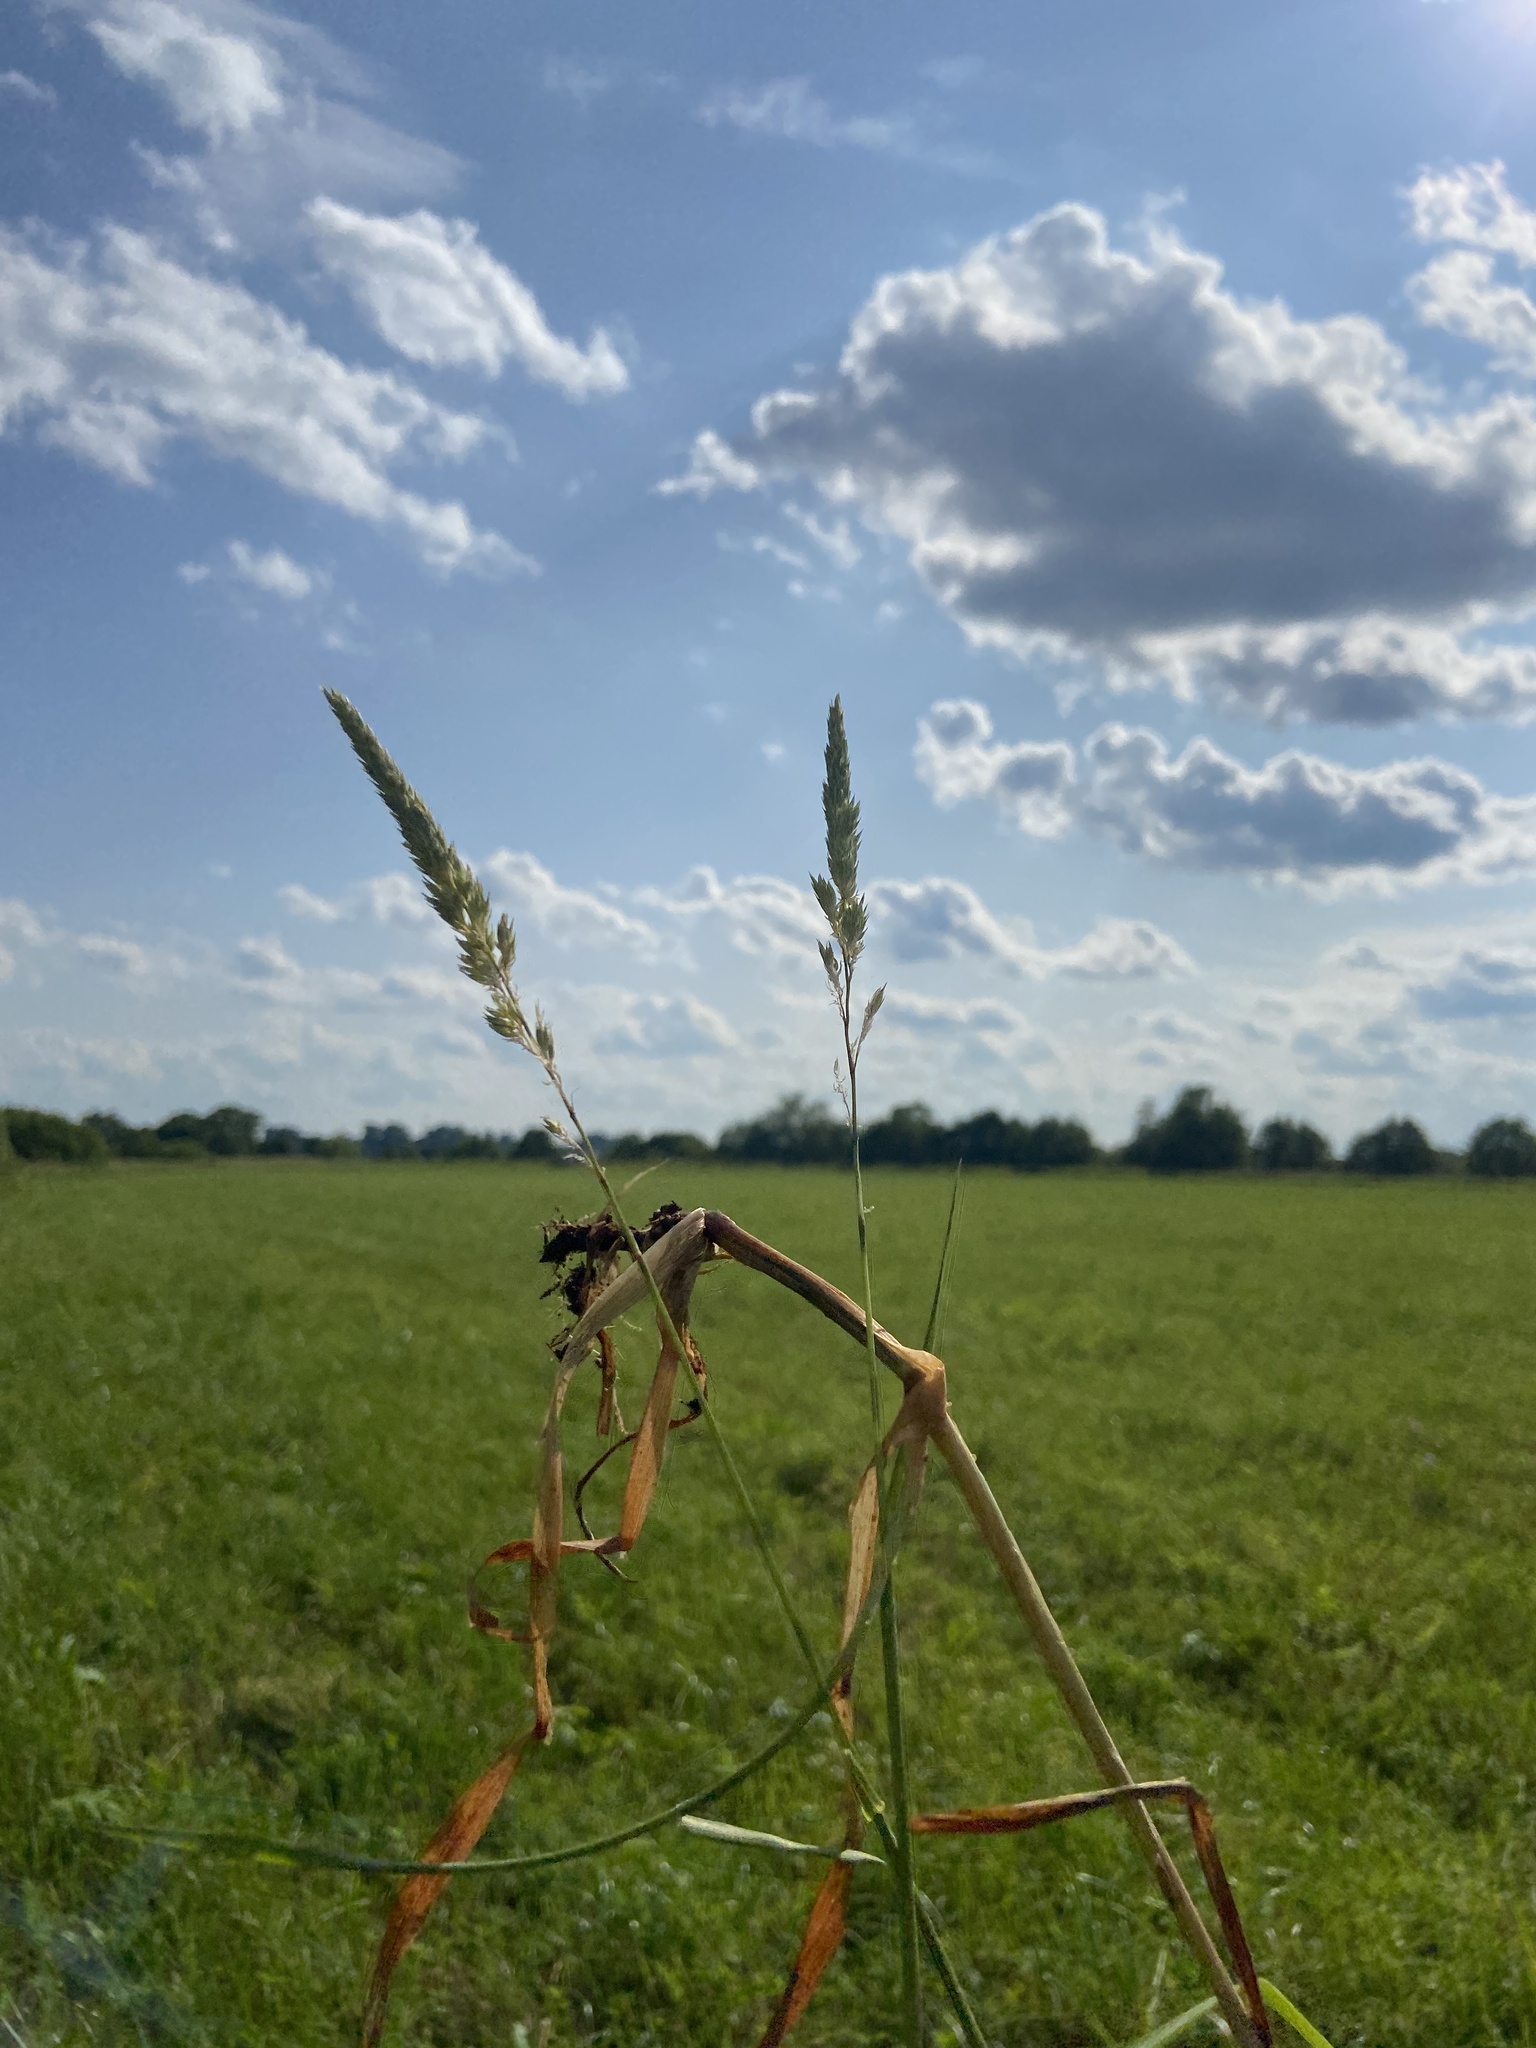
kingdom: Plantae
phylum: Tracheophyta
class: Liliopsida
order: Poales
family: Poaceae
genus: Phalaris
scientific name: Phalaris arundinacea
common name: Reed canary-grass
